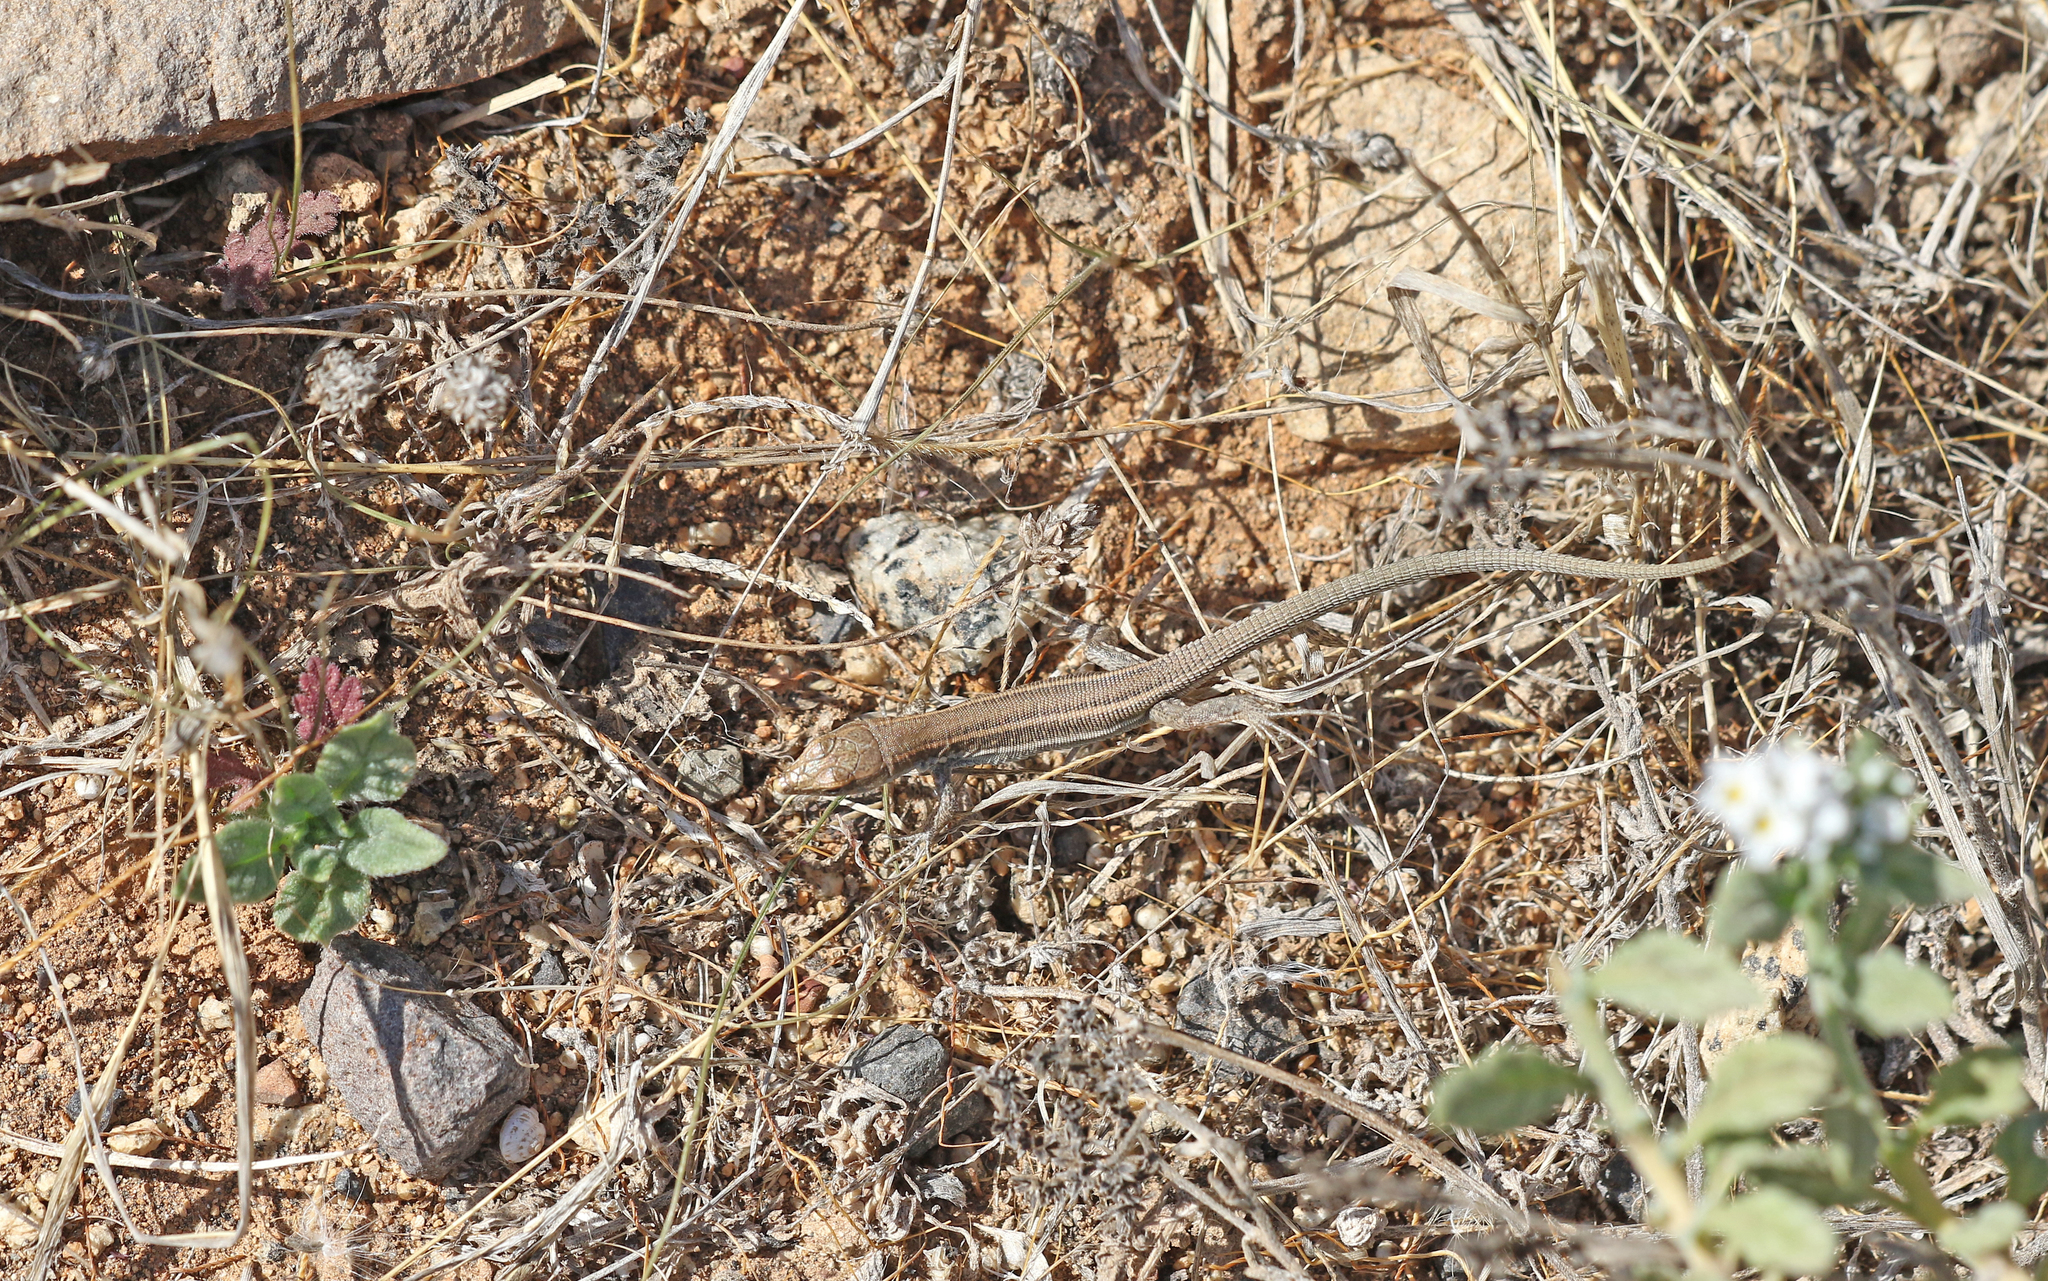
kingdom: Animalia
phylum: Chordata
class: Squamata
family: Lacertidae
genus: Gallotia
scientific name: Gallotia atlantica
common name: Atlantic lizard
